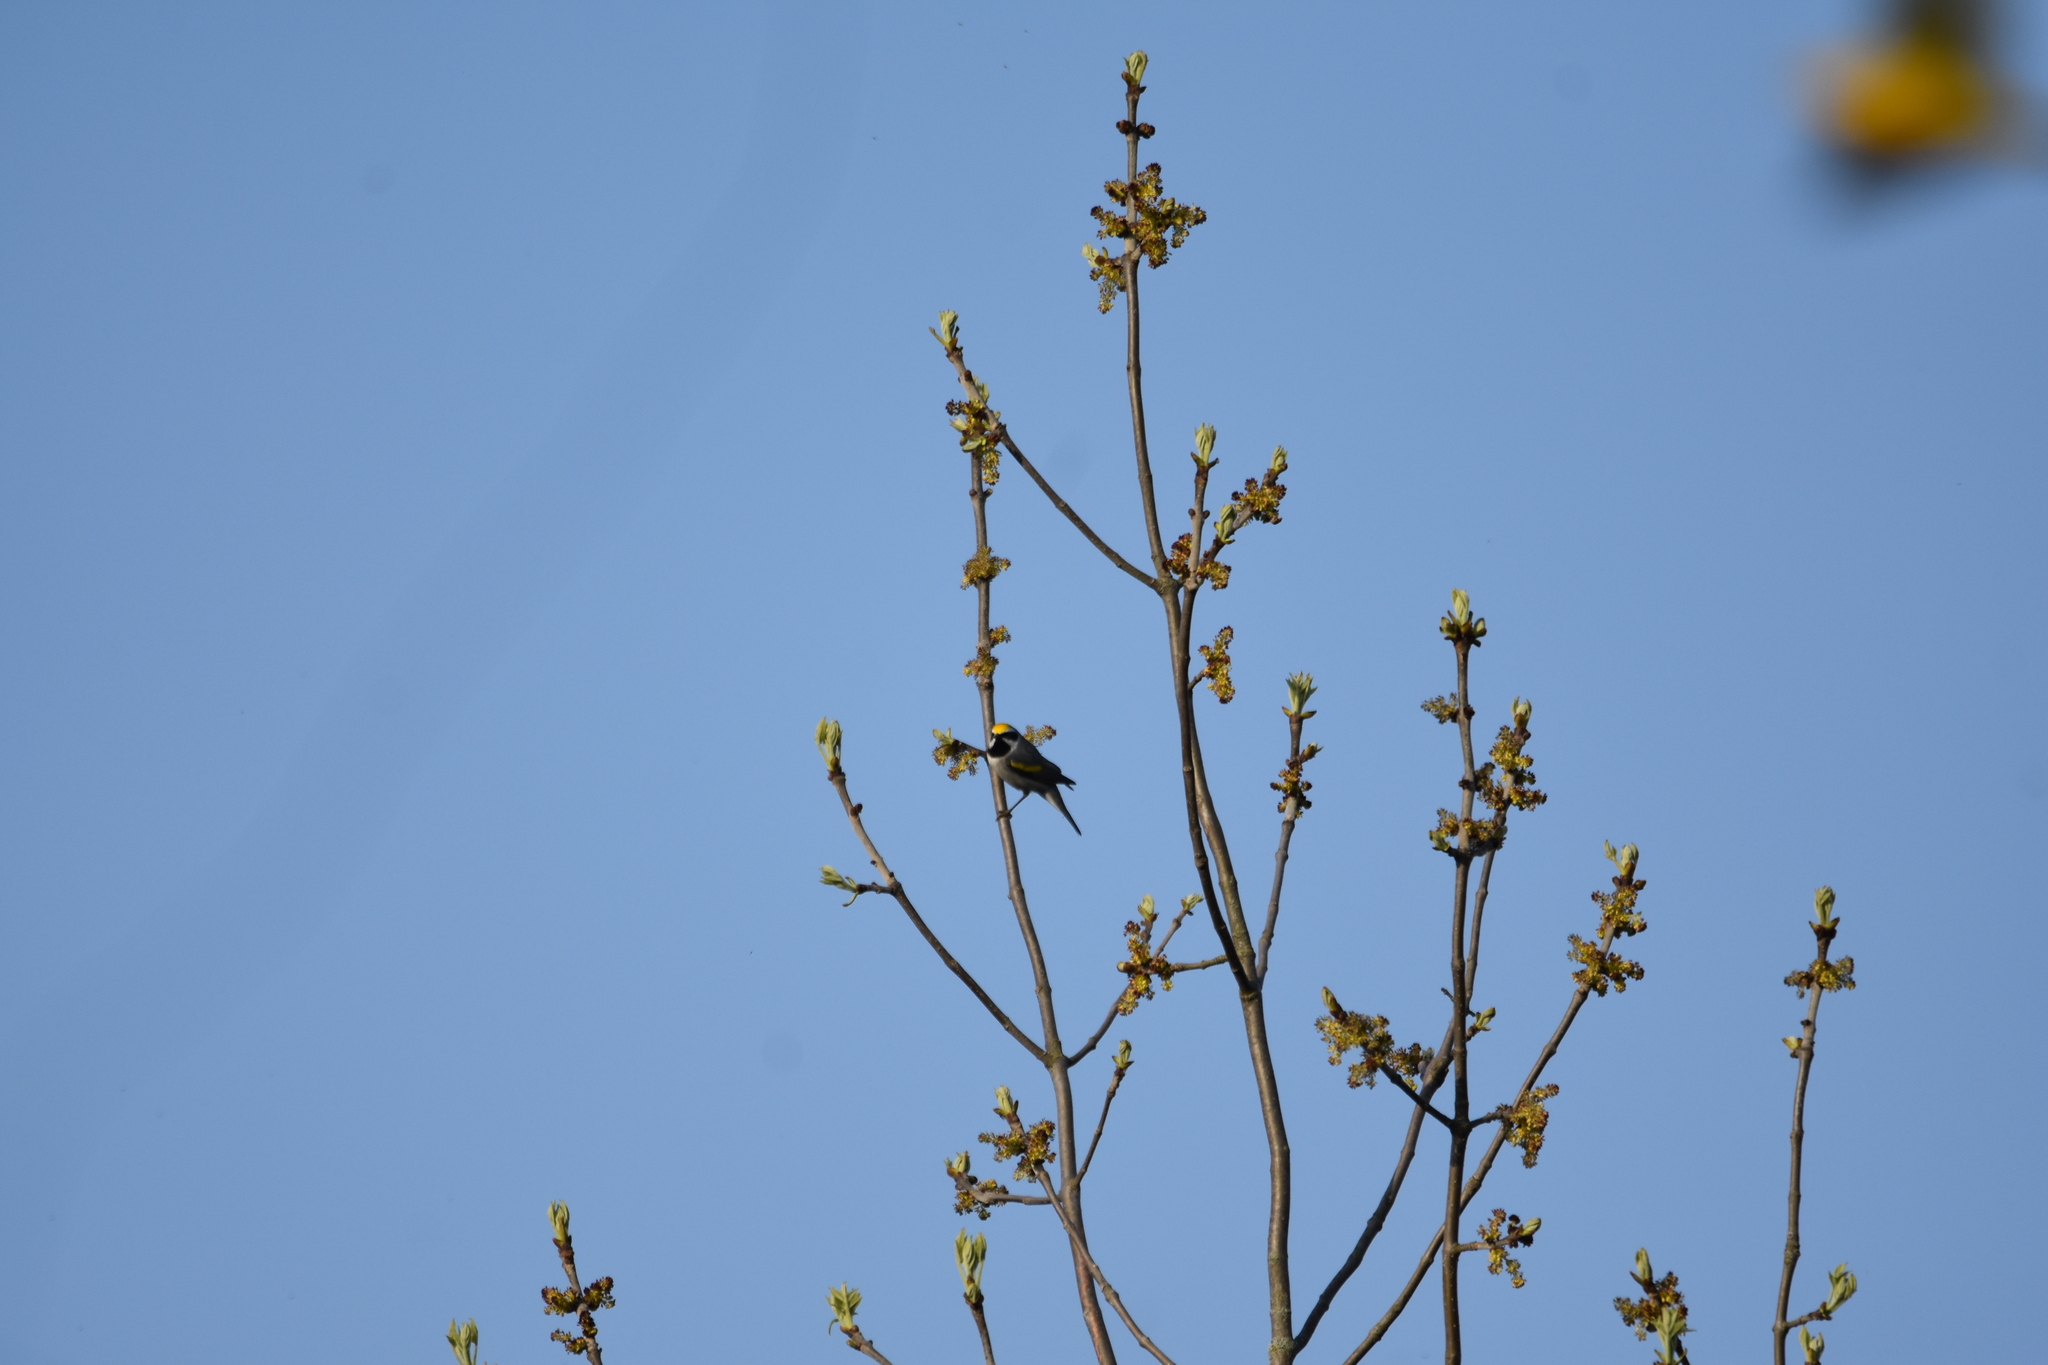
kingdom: Animalia
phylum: Chordata
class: Aves
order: Passeriformes
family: Parulidae
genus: Vermivora
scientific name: Vermivora chrysoptera
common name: Golden-winged warbler
